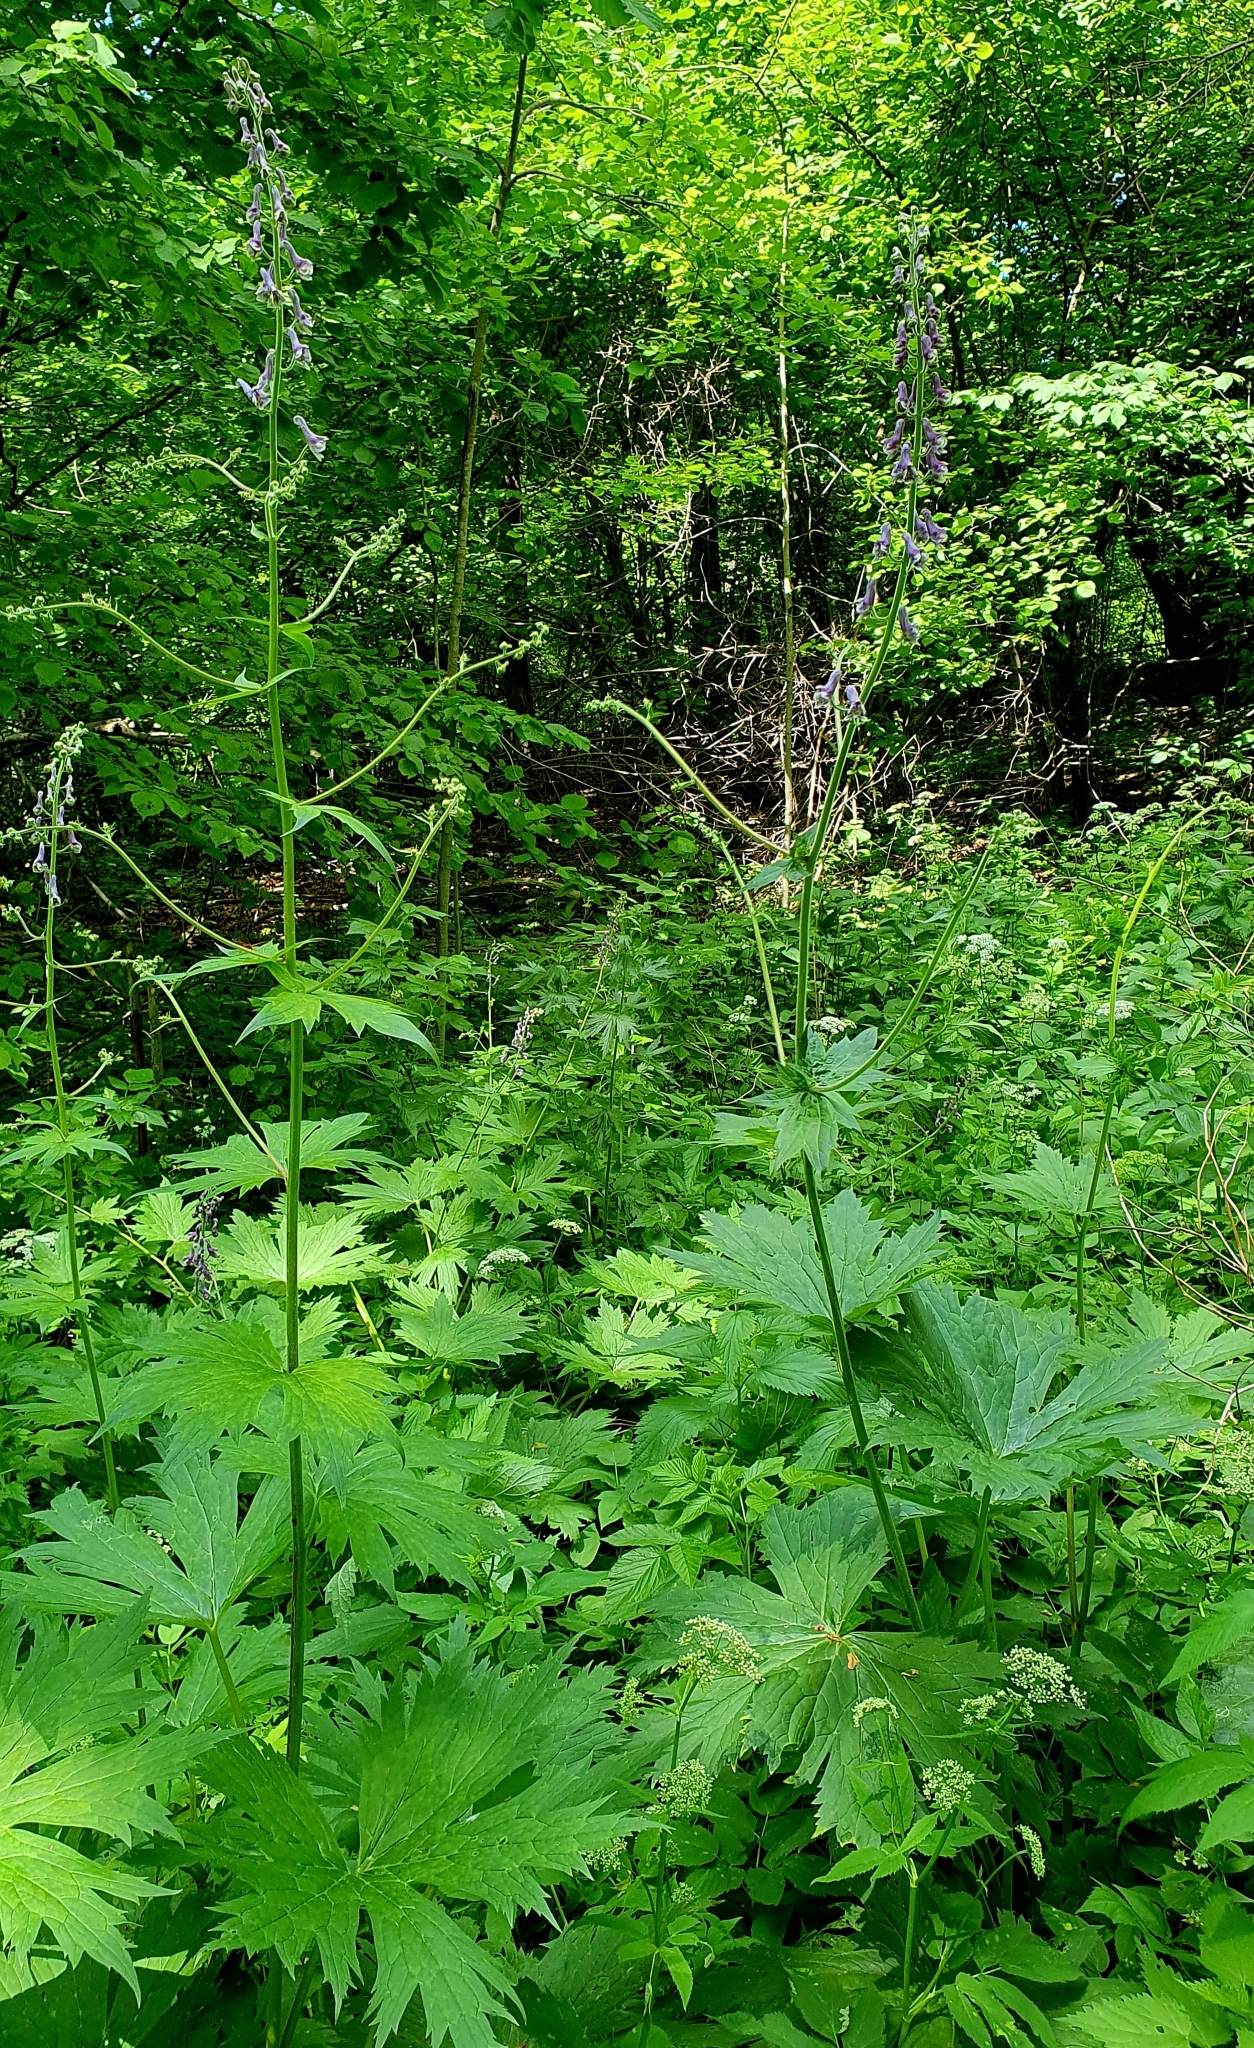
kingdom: Plantae
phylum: Tracheophyta
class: Magnoliopsida
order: Ranunculales
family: Ranunculaceae
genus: Aconitum
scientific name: Aconitum septentrionale
